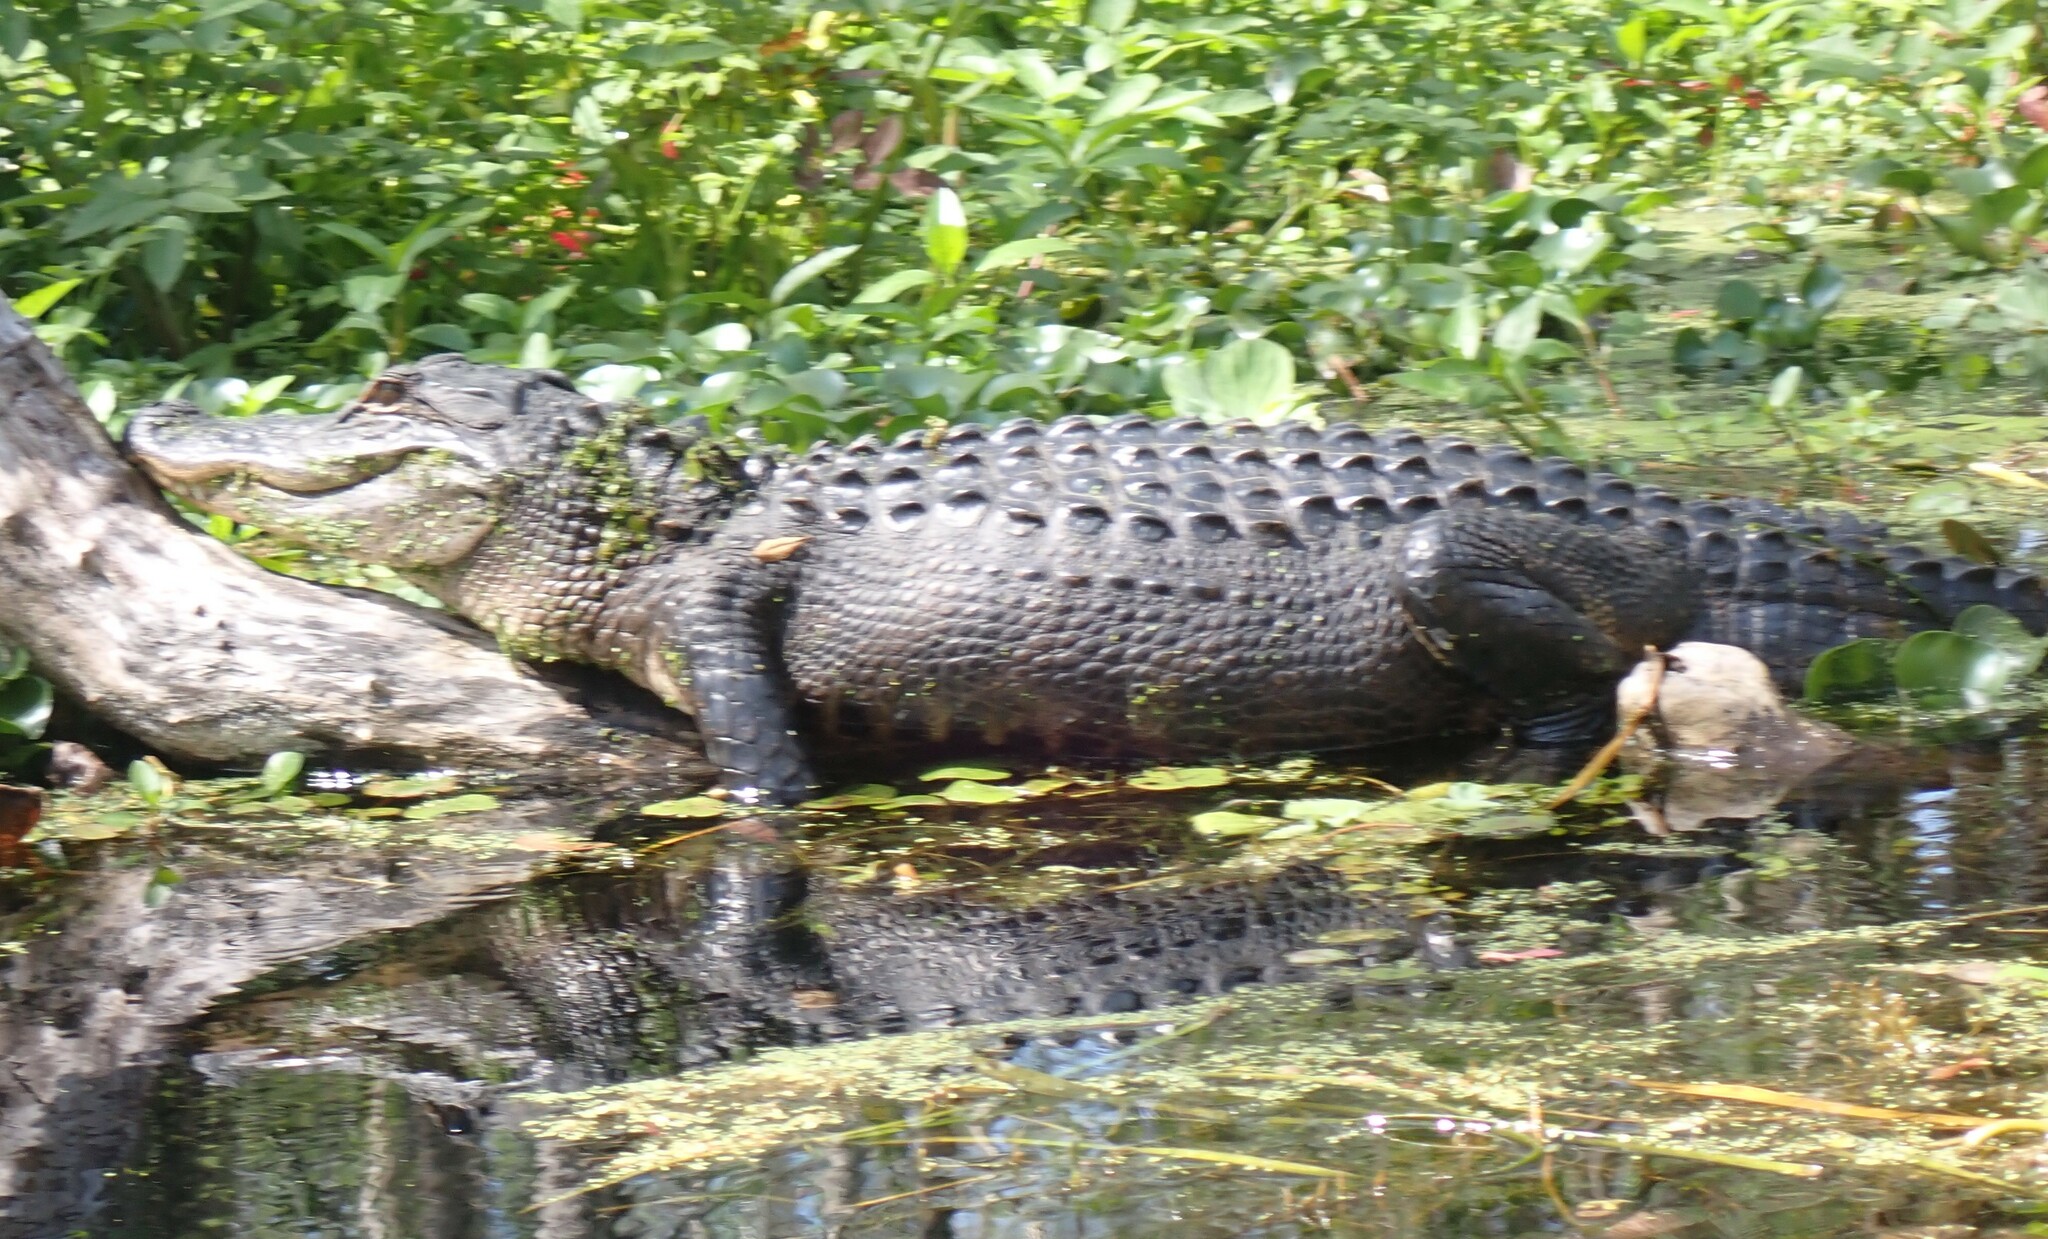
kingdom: Animalia
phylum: Chordata
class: Crocodylia
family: Alligatoridae
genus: Alligator
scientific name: Alligator mississippiensis
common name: American alligator
